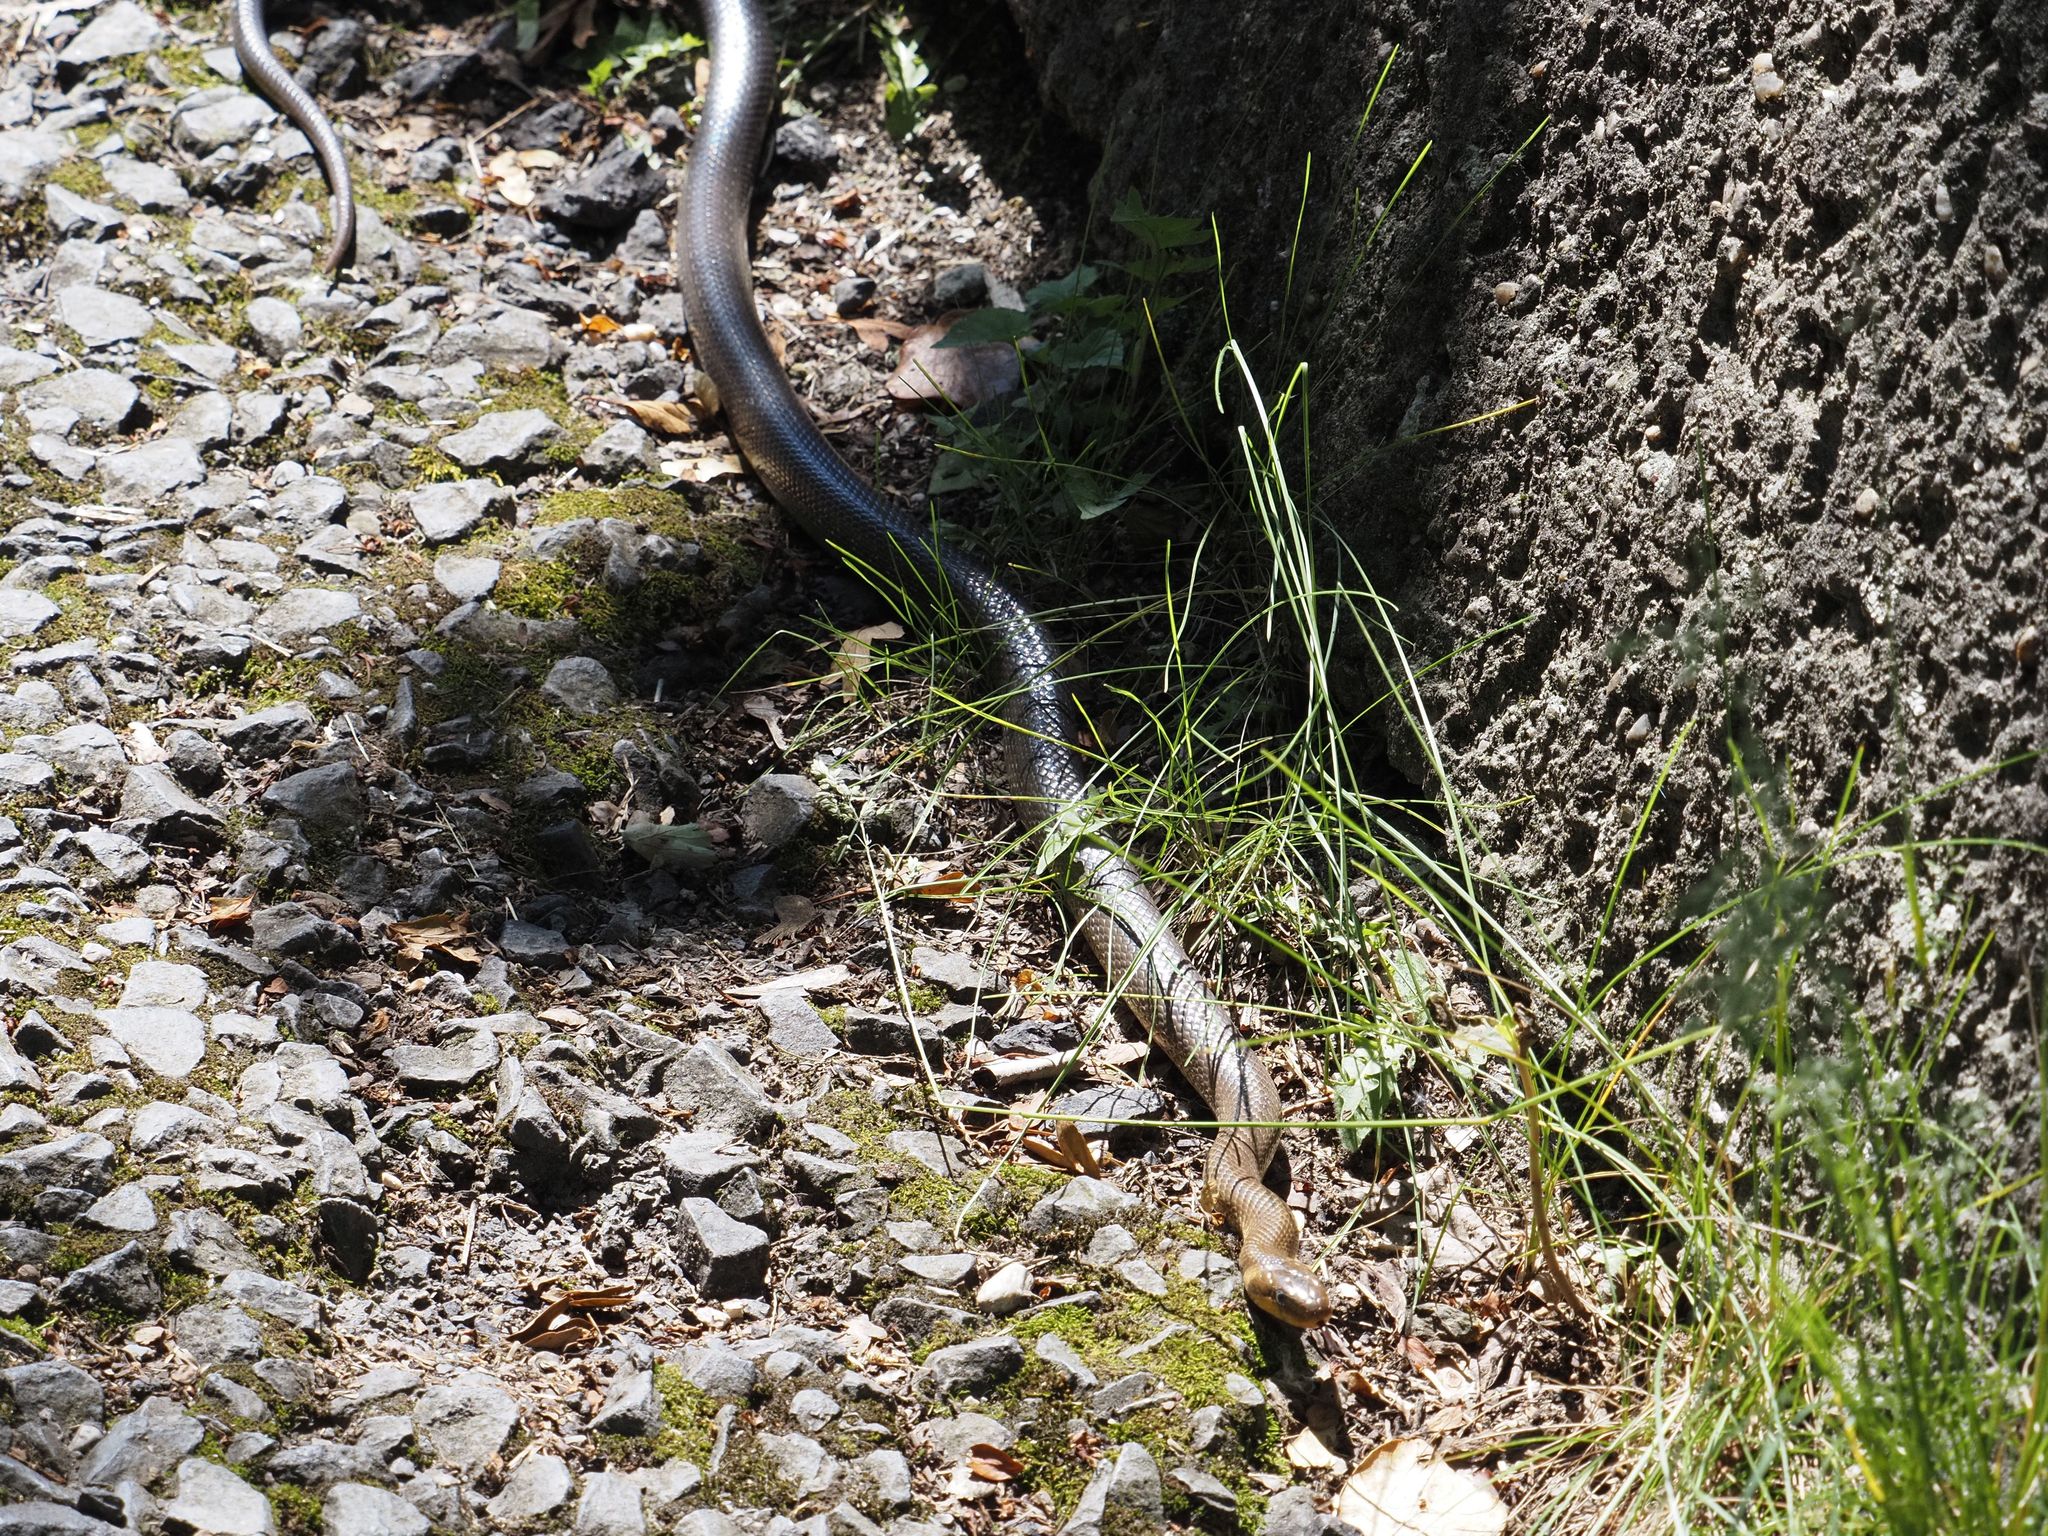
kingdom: Animalia
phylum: Chordata
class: Squamata
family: Colubridae
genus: Zamenis
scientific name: Zamenis longissimus
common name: Aesculapean snake
